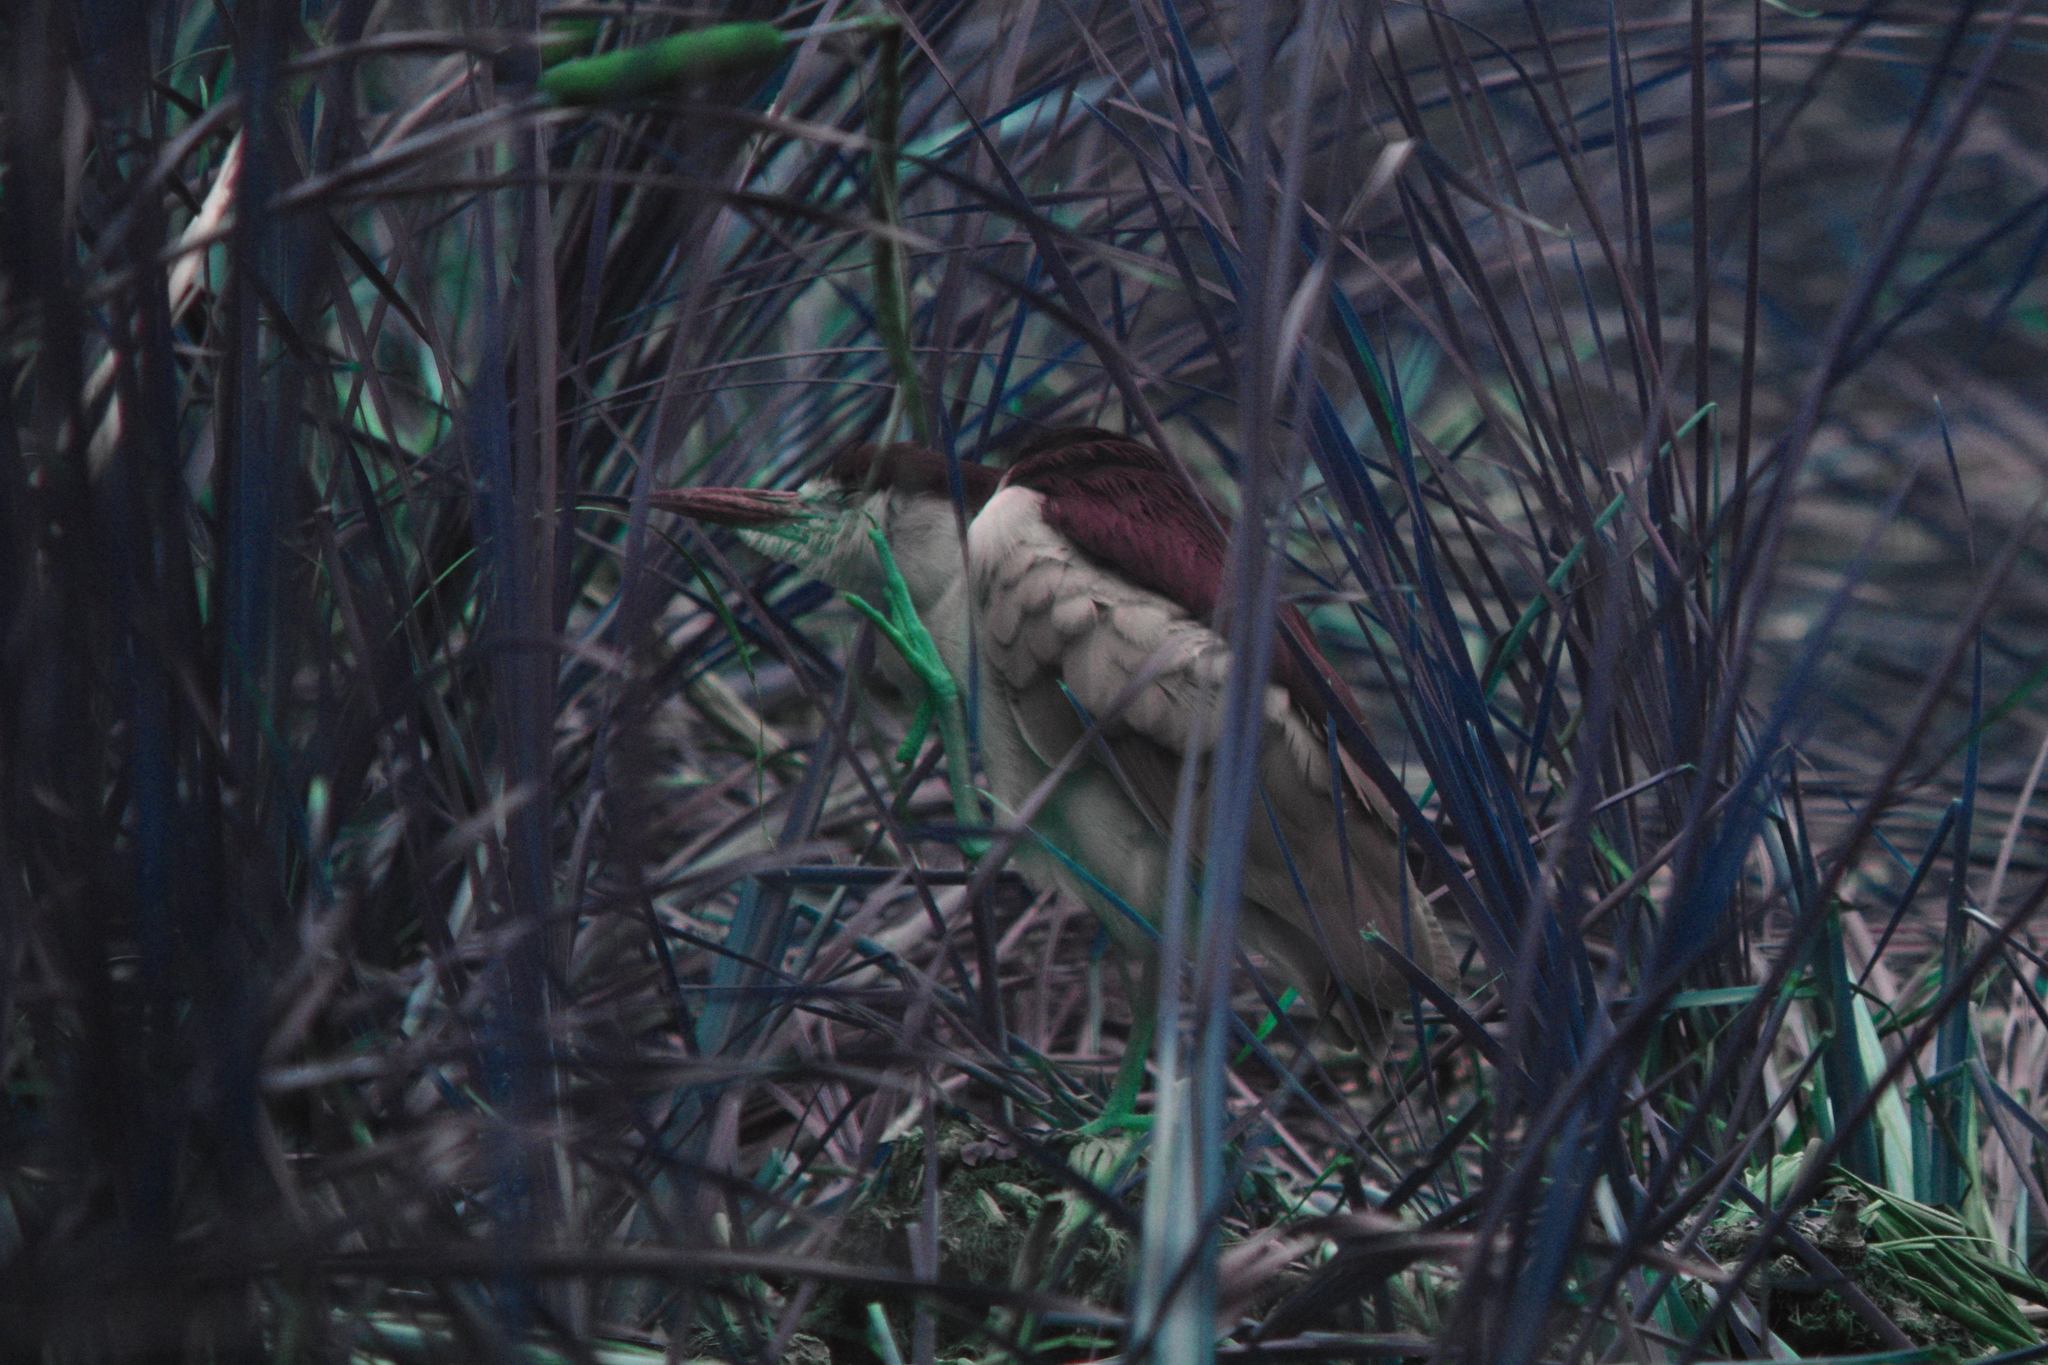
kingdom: Animalia
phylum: Chordata
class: Aves
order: Pelecaniformes
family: Ardeidae
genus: Nycticorax
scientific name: Nycticorax nycticorax
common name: Black-crowned night heron
